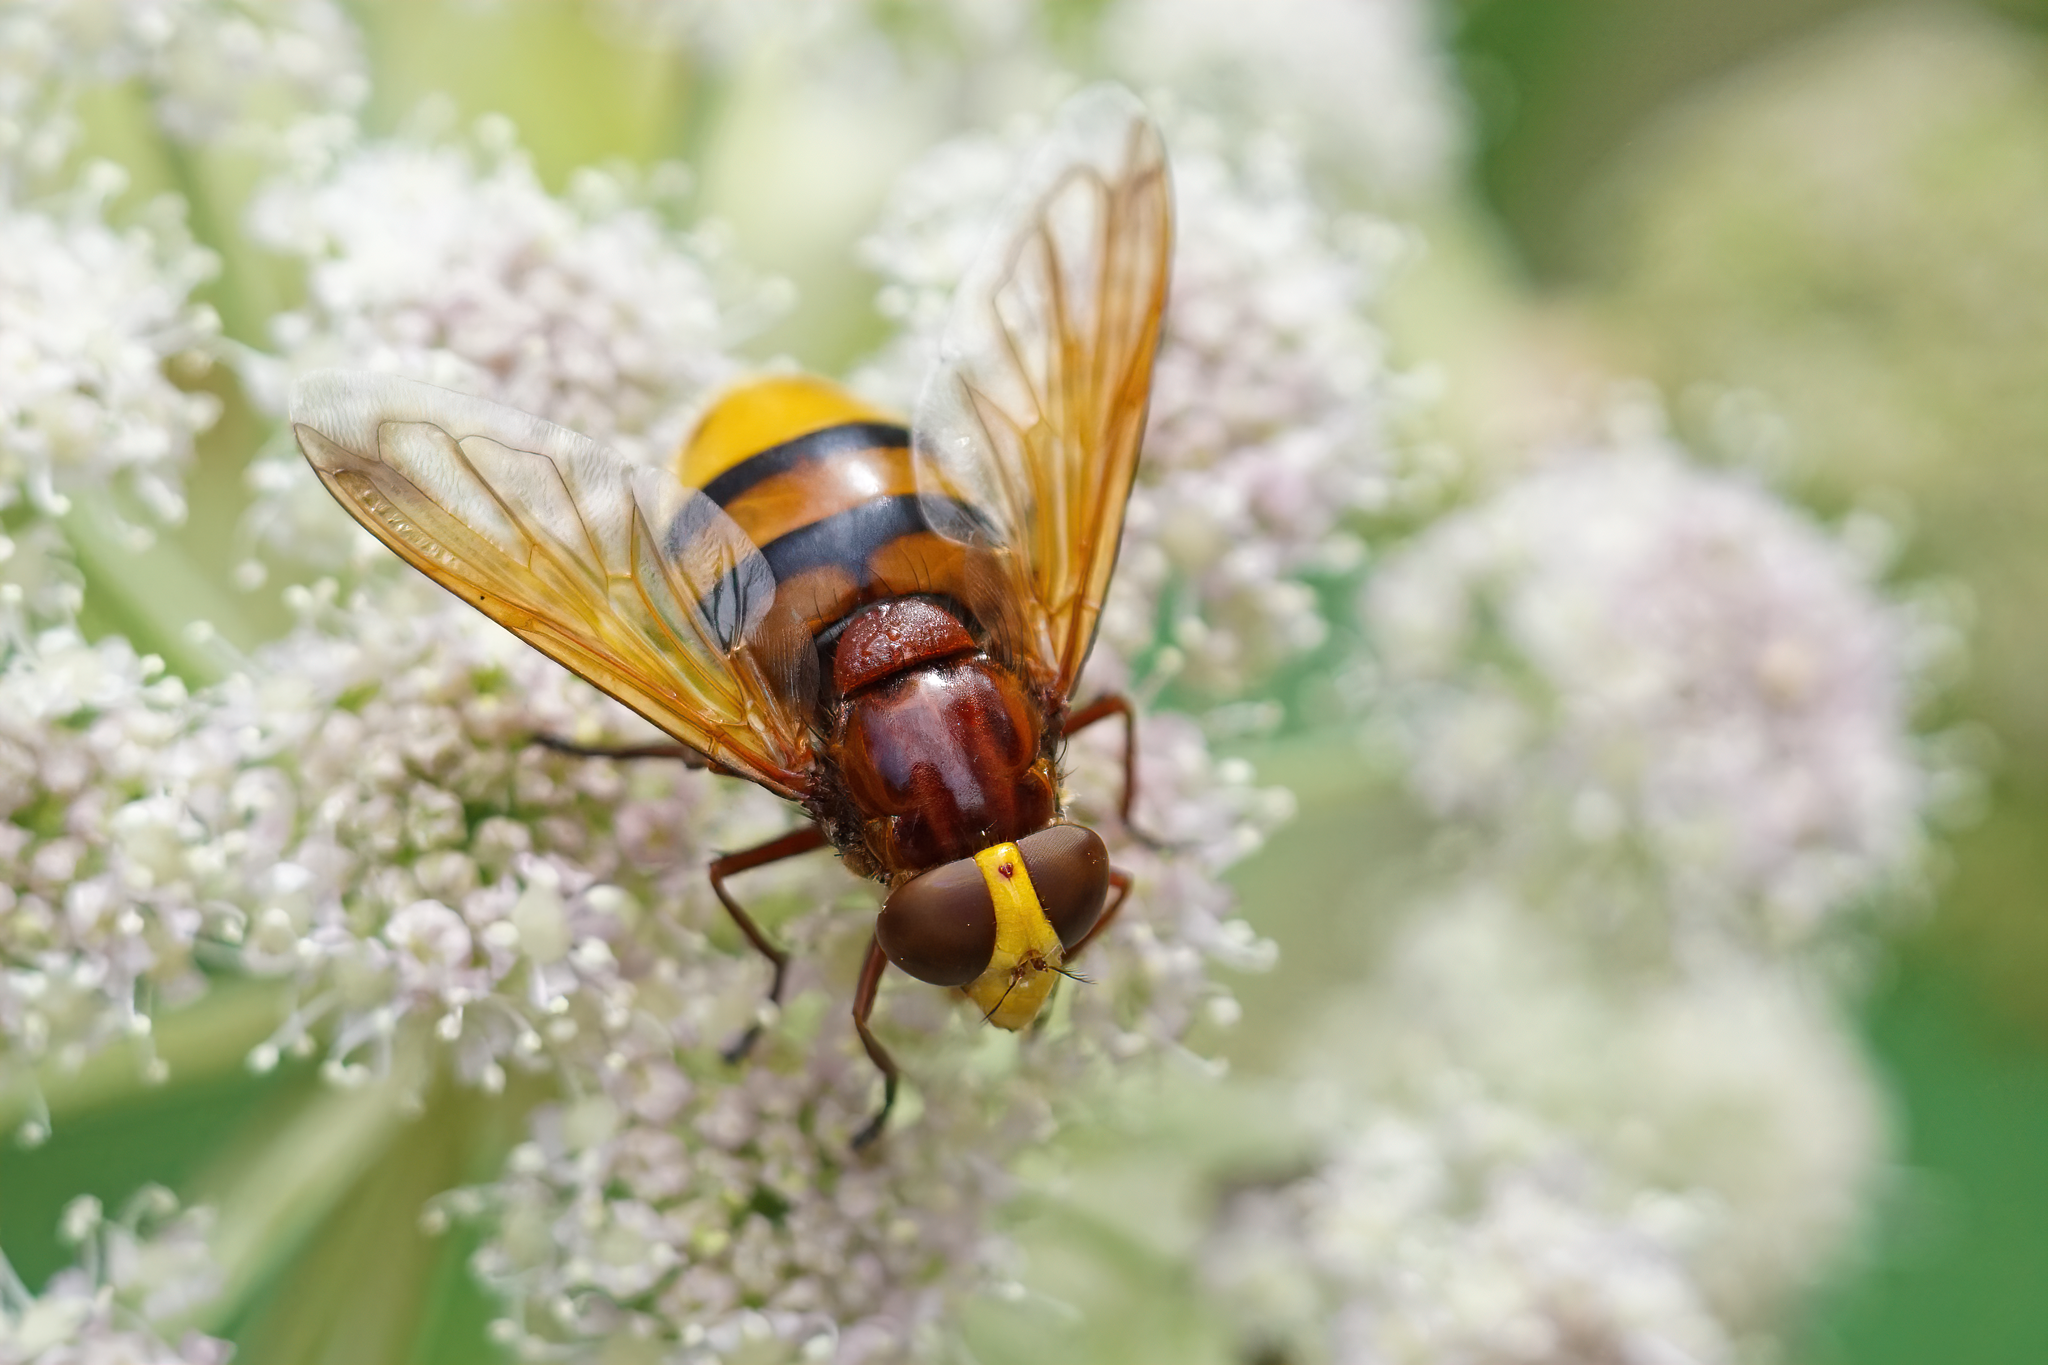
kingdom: Animalia
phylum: Arthropoda
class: Insecta
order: Diptera
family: Syrphidae
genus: Volucella
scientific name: Volucella zonaria
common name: Hornet hoverfly
